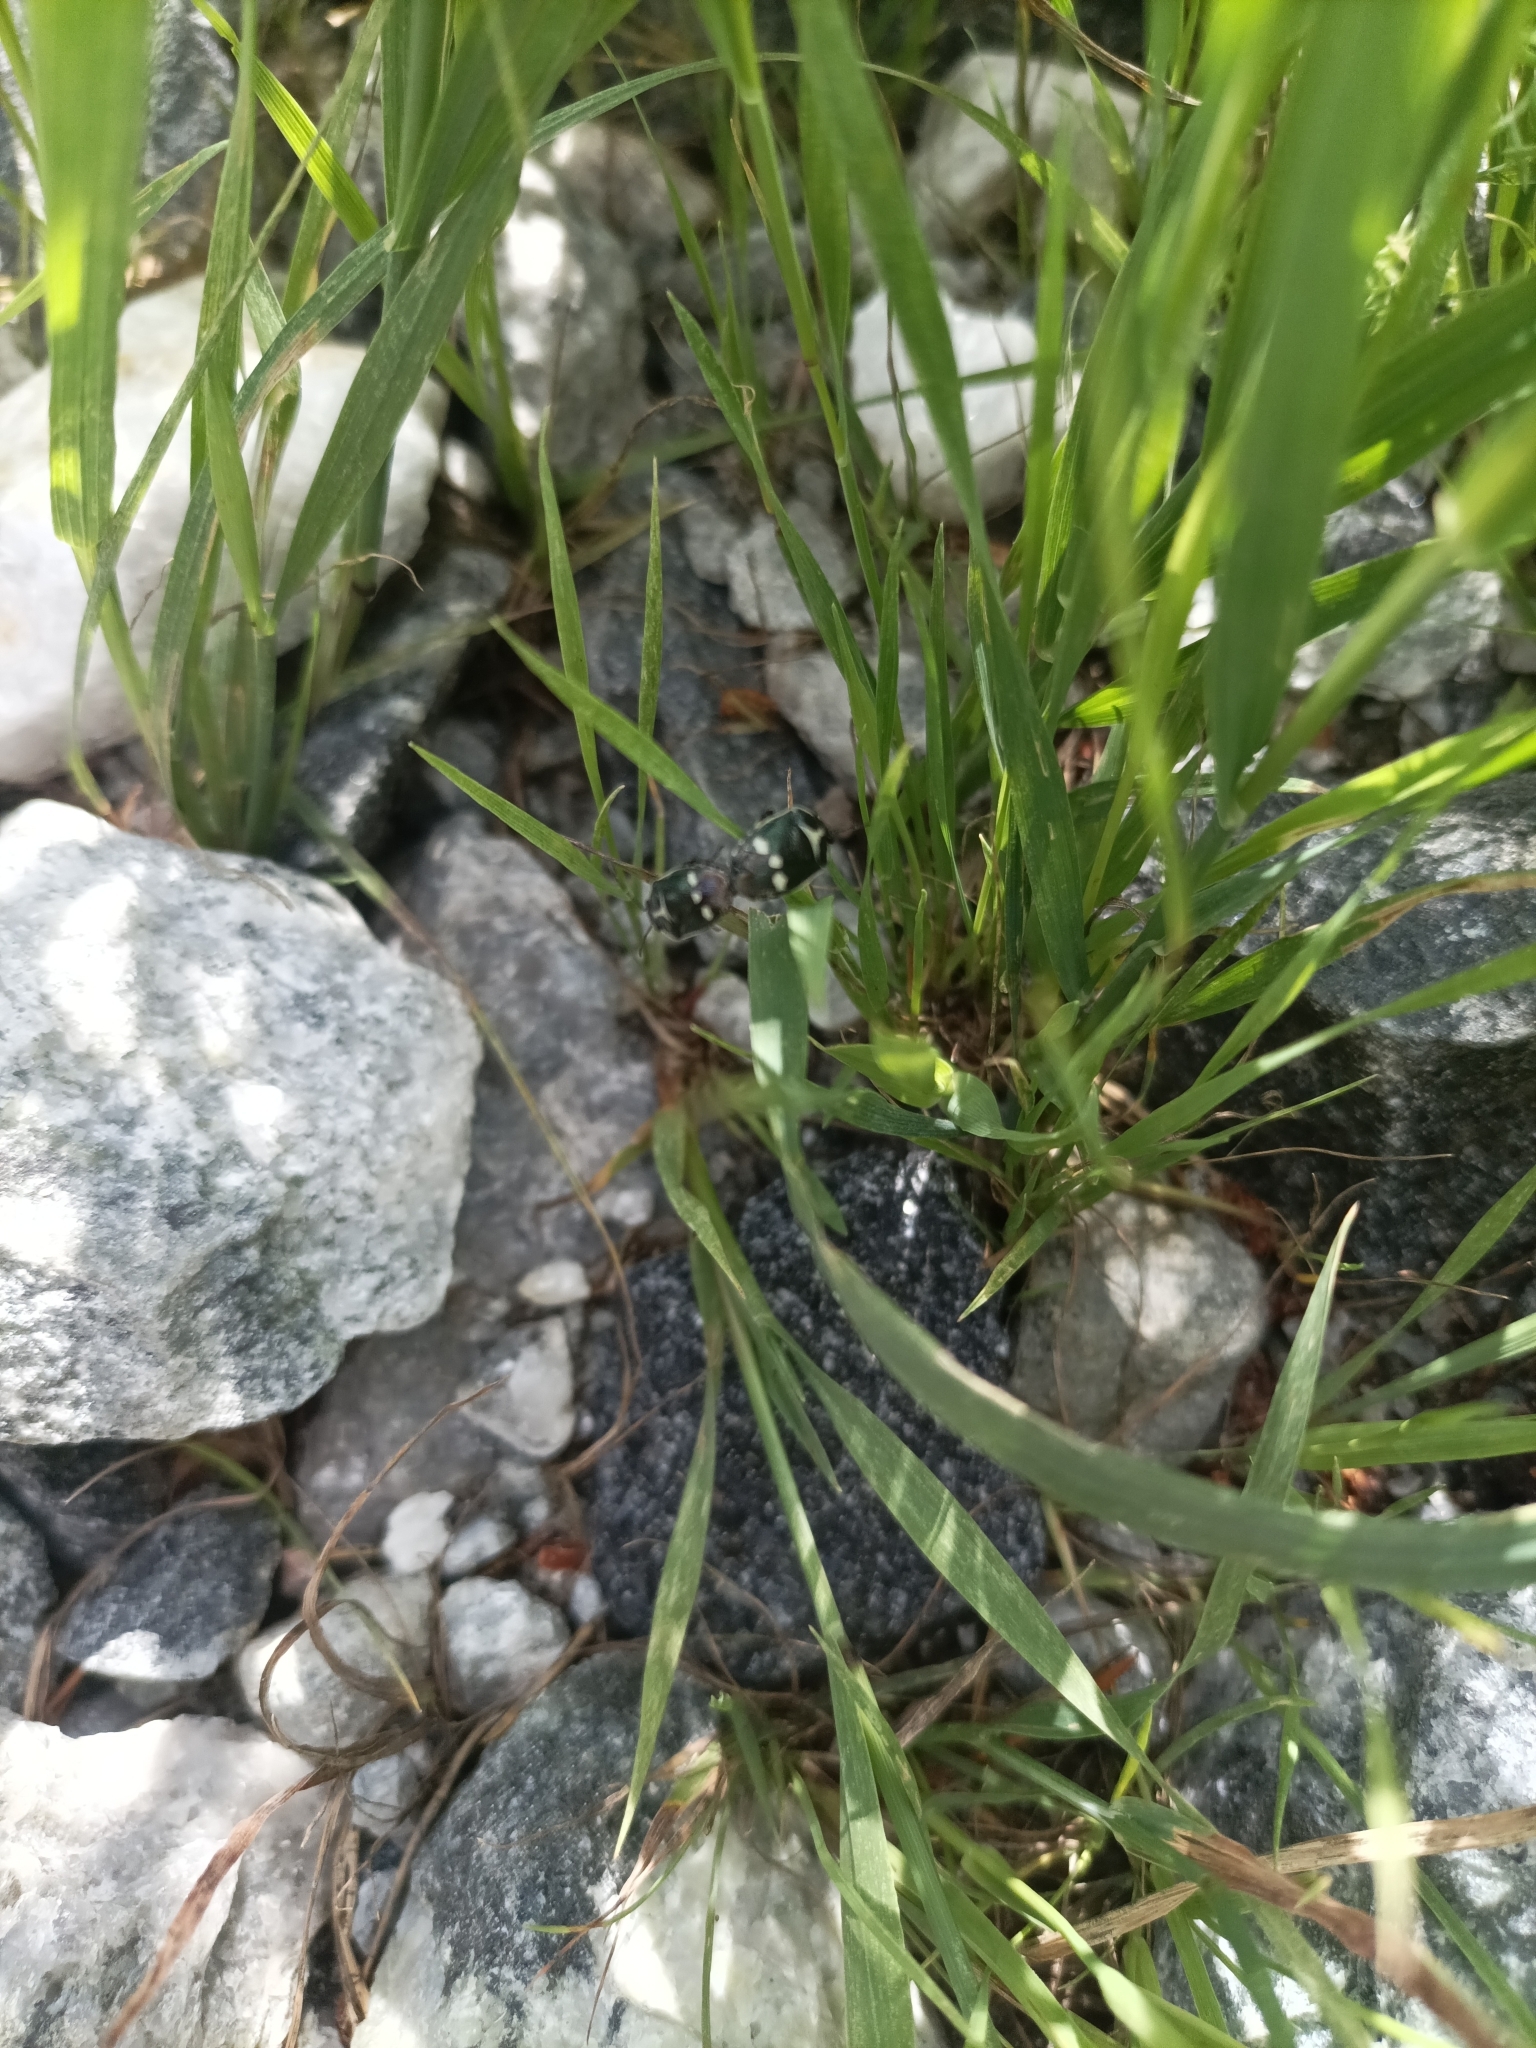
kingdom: Animalia
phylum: Arthropoda
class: Insecta
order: Hemiptera
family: Pentatomidae
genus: Eurydema
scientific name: Eurydema oleracea
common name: Cabbage bug
